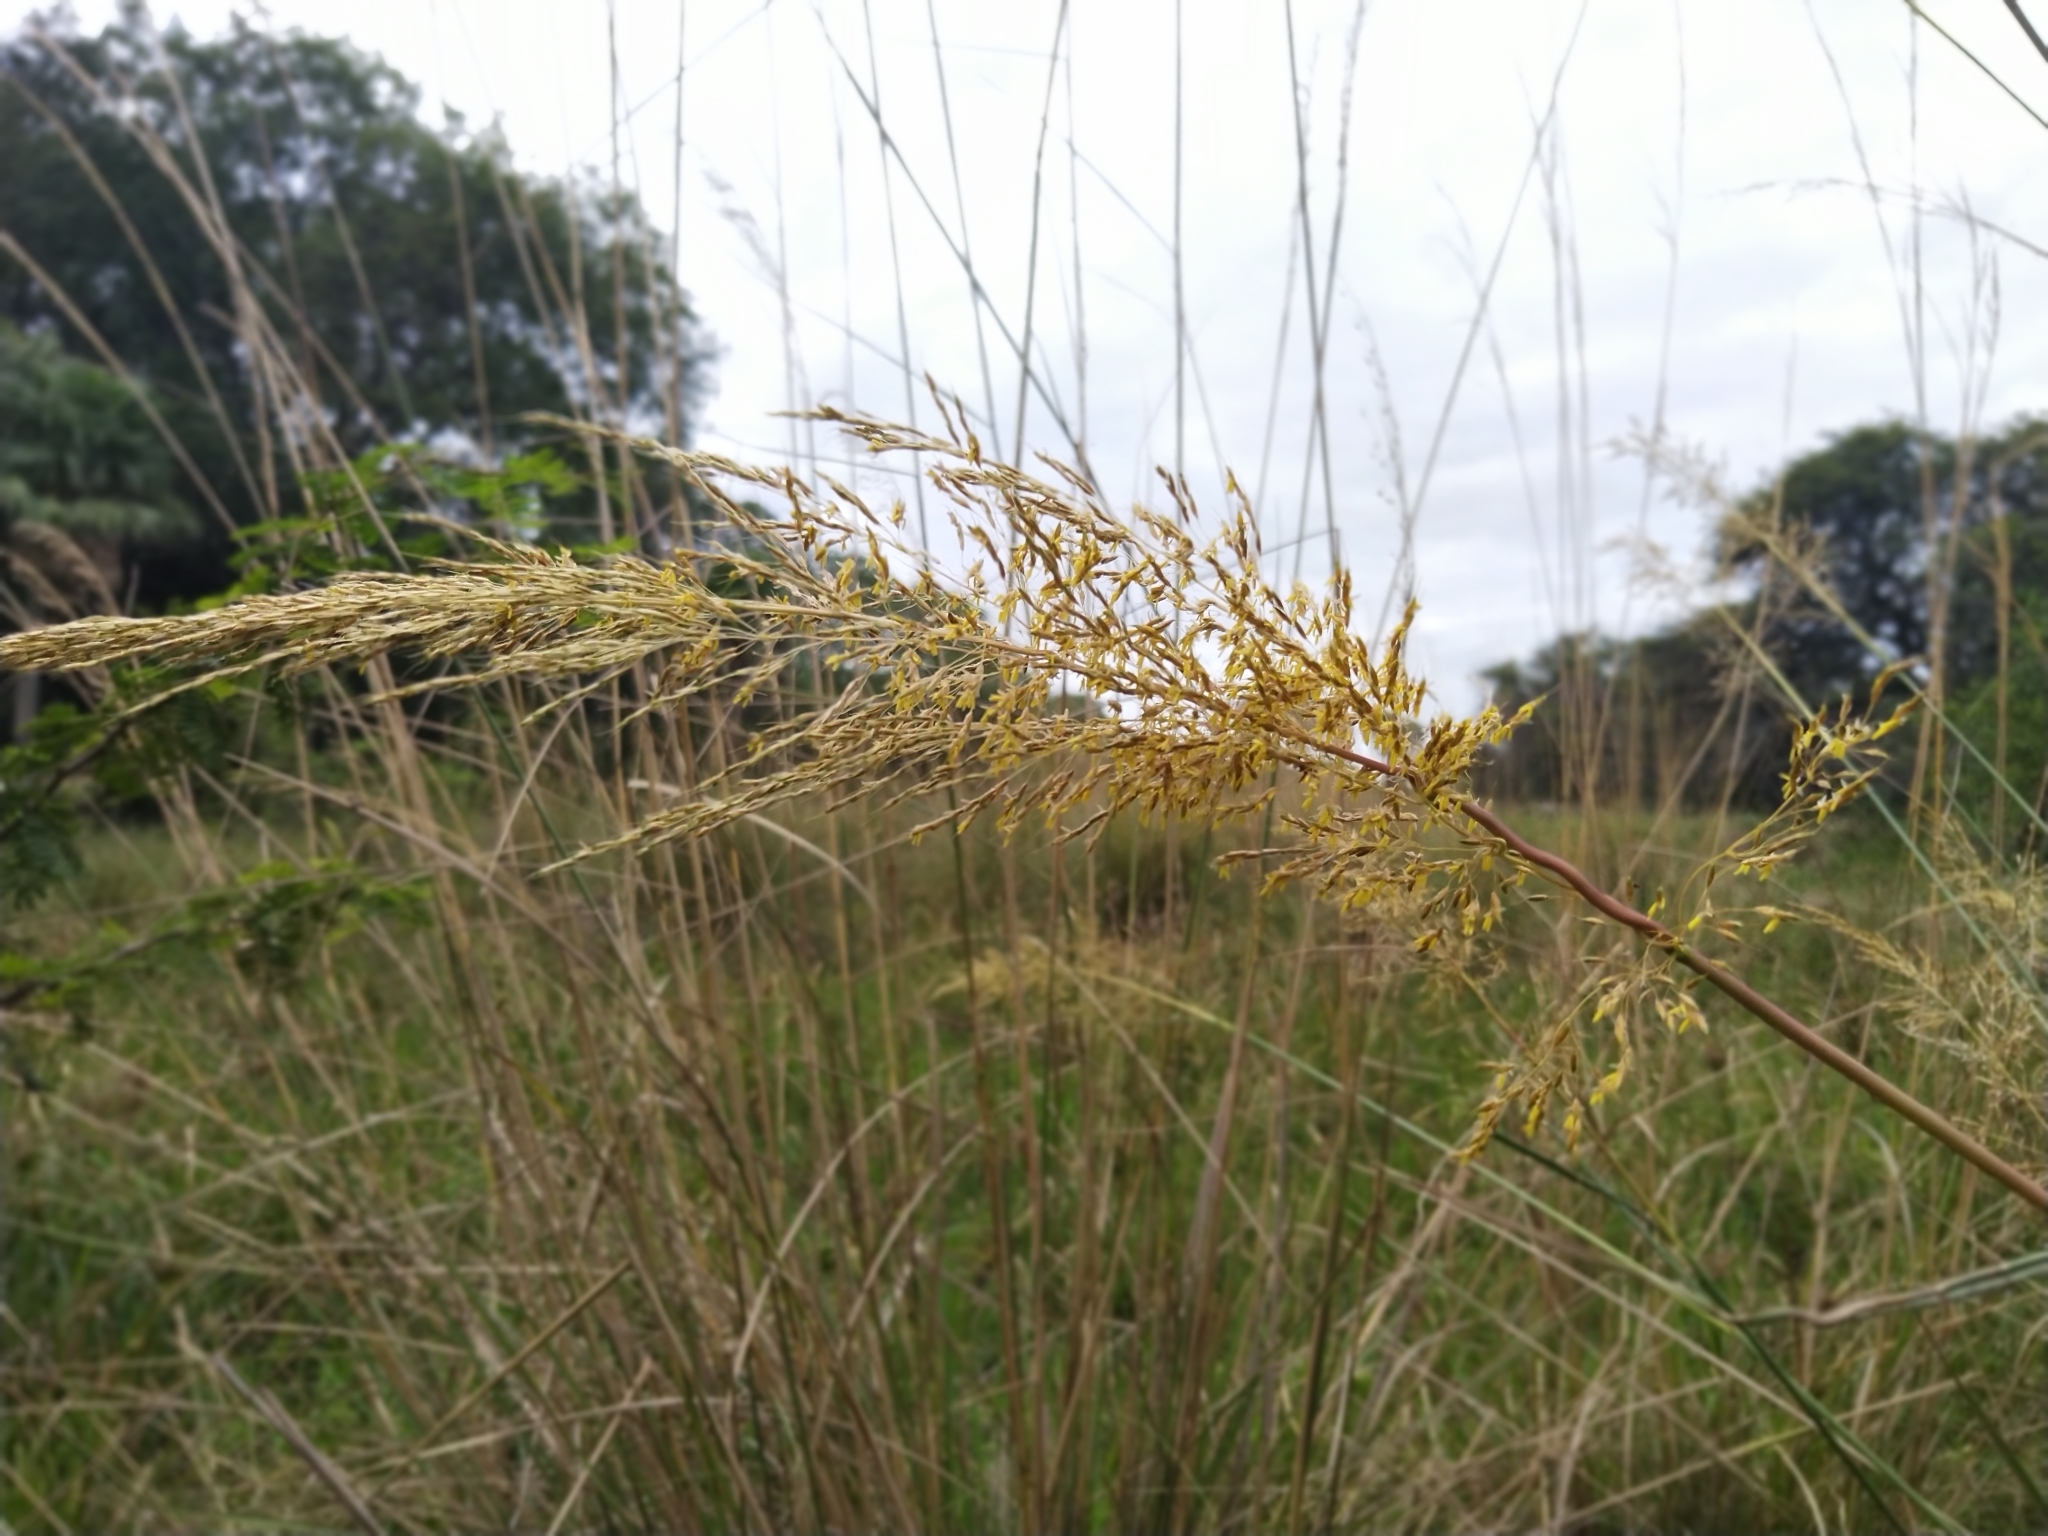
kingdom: Plantae
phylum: Tracheophyta
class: Liliopsida
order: Poales
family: Poaceae
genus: Sorghastrum
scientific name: Sorghastrum setosum
